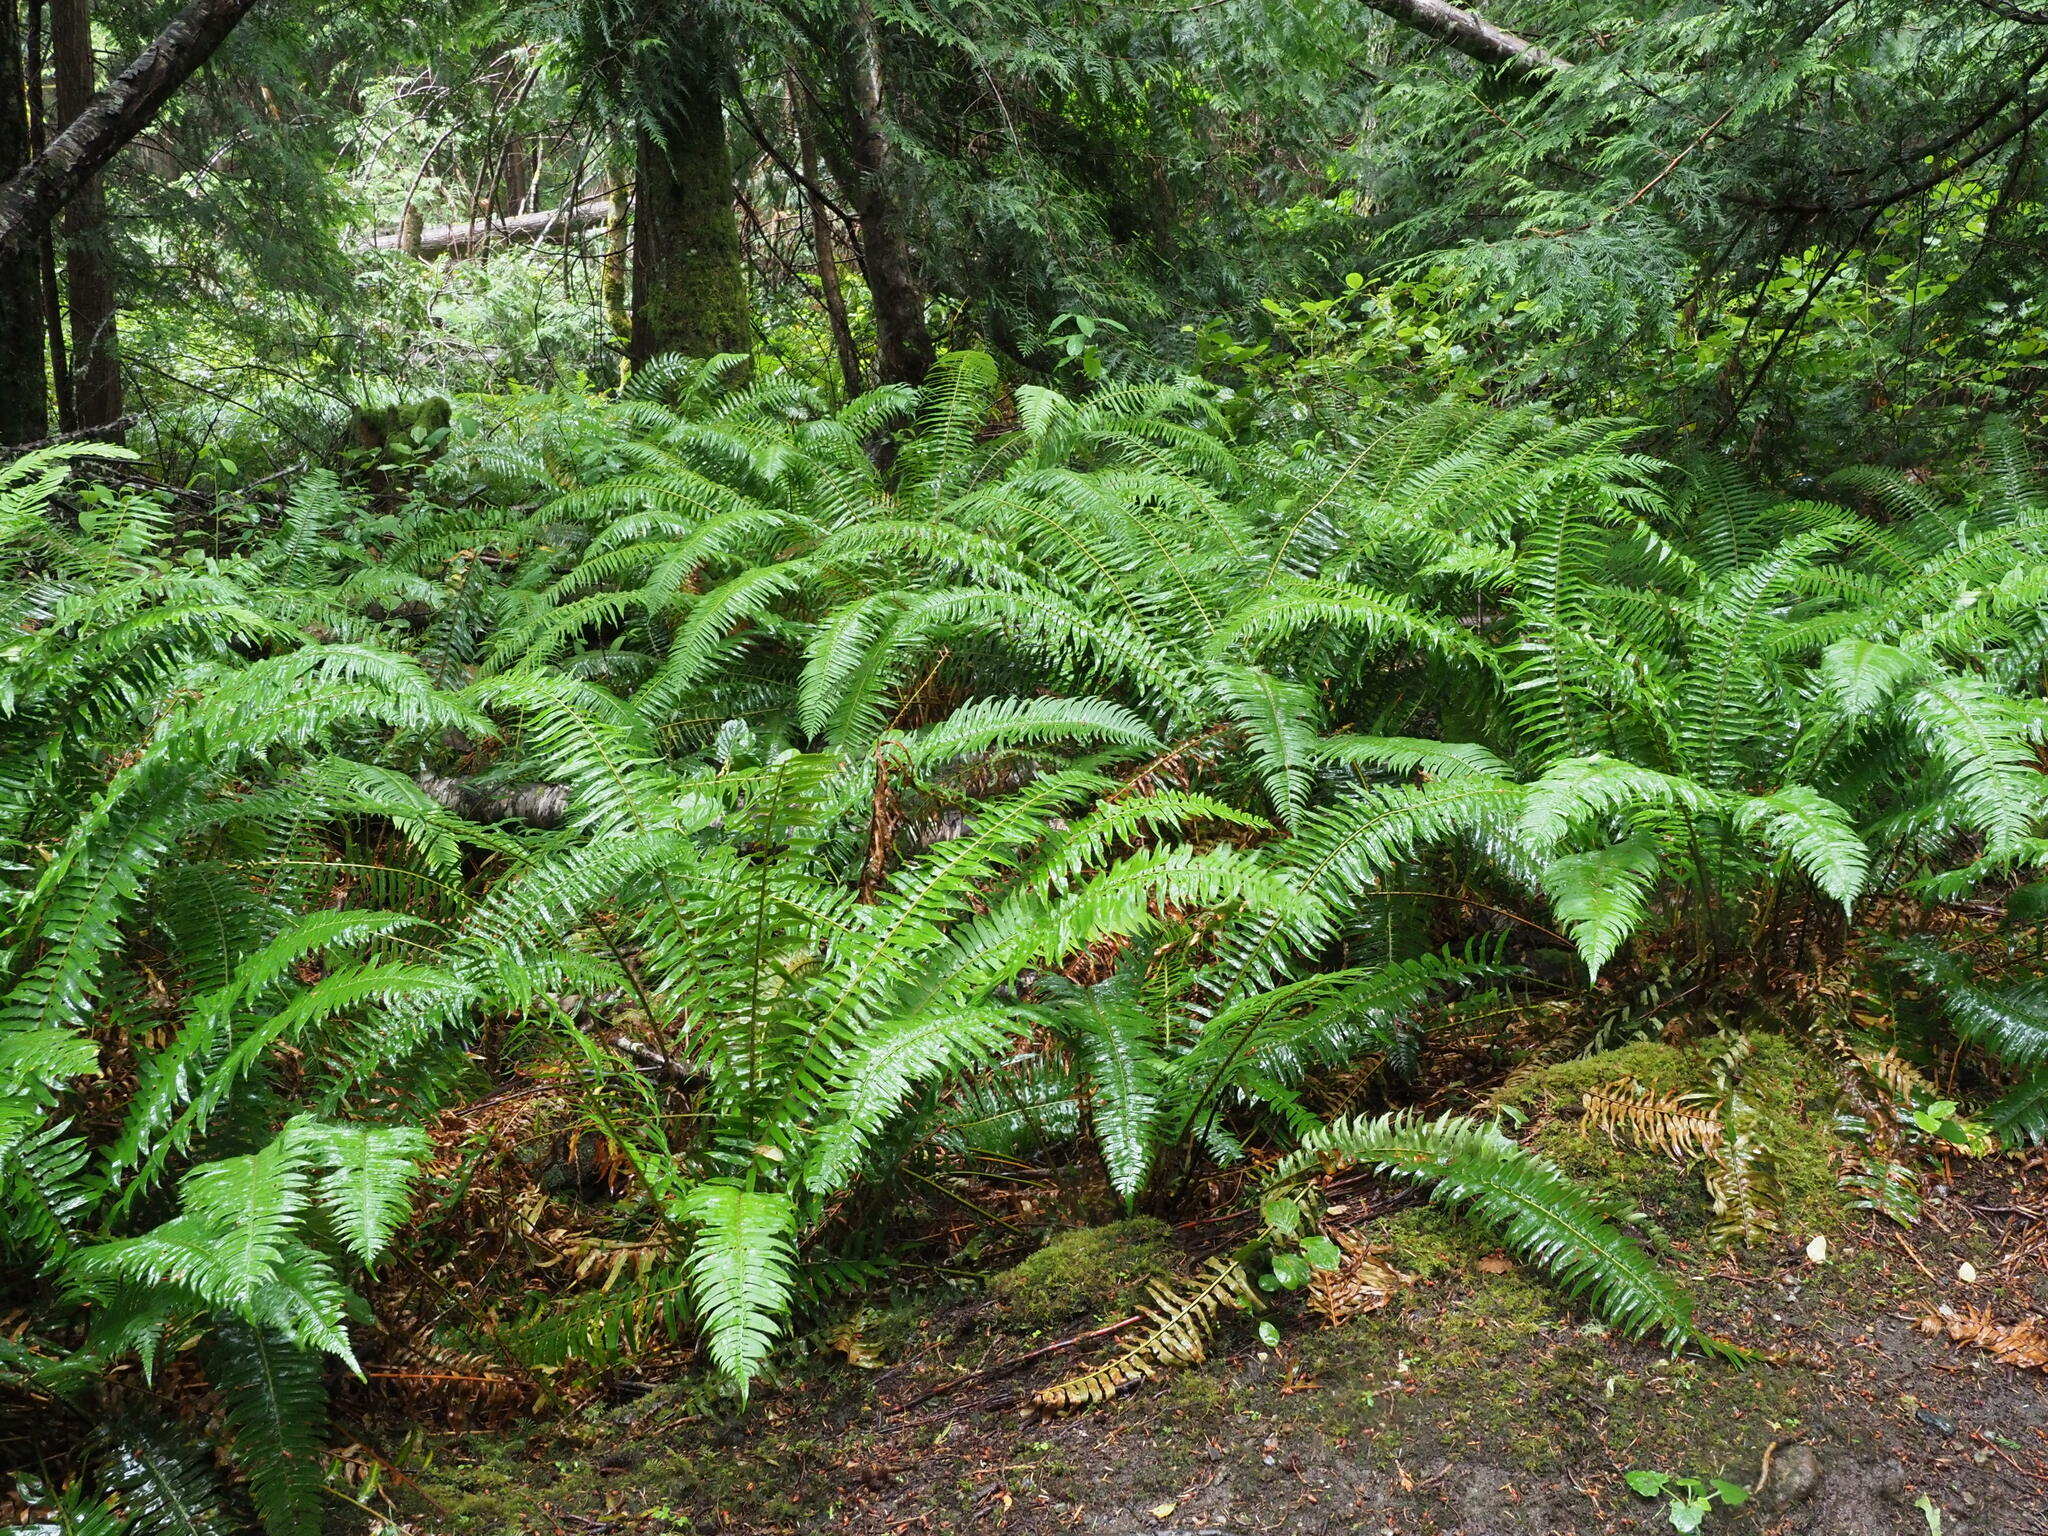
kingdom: Plantae
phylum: Tracheophyta
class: Polypodiopsida
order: Polypodiales
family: Dryopteridaceae
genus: Polystichum
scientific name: Polystichum munitum
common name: Western sword-fern
